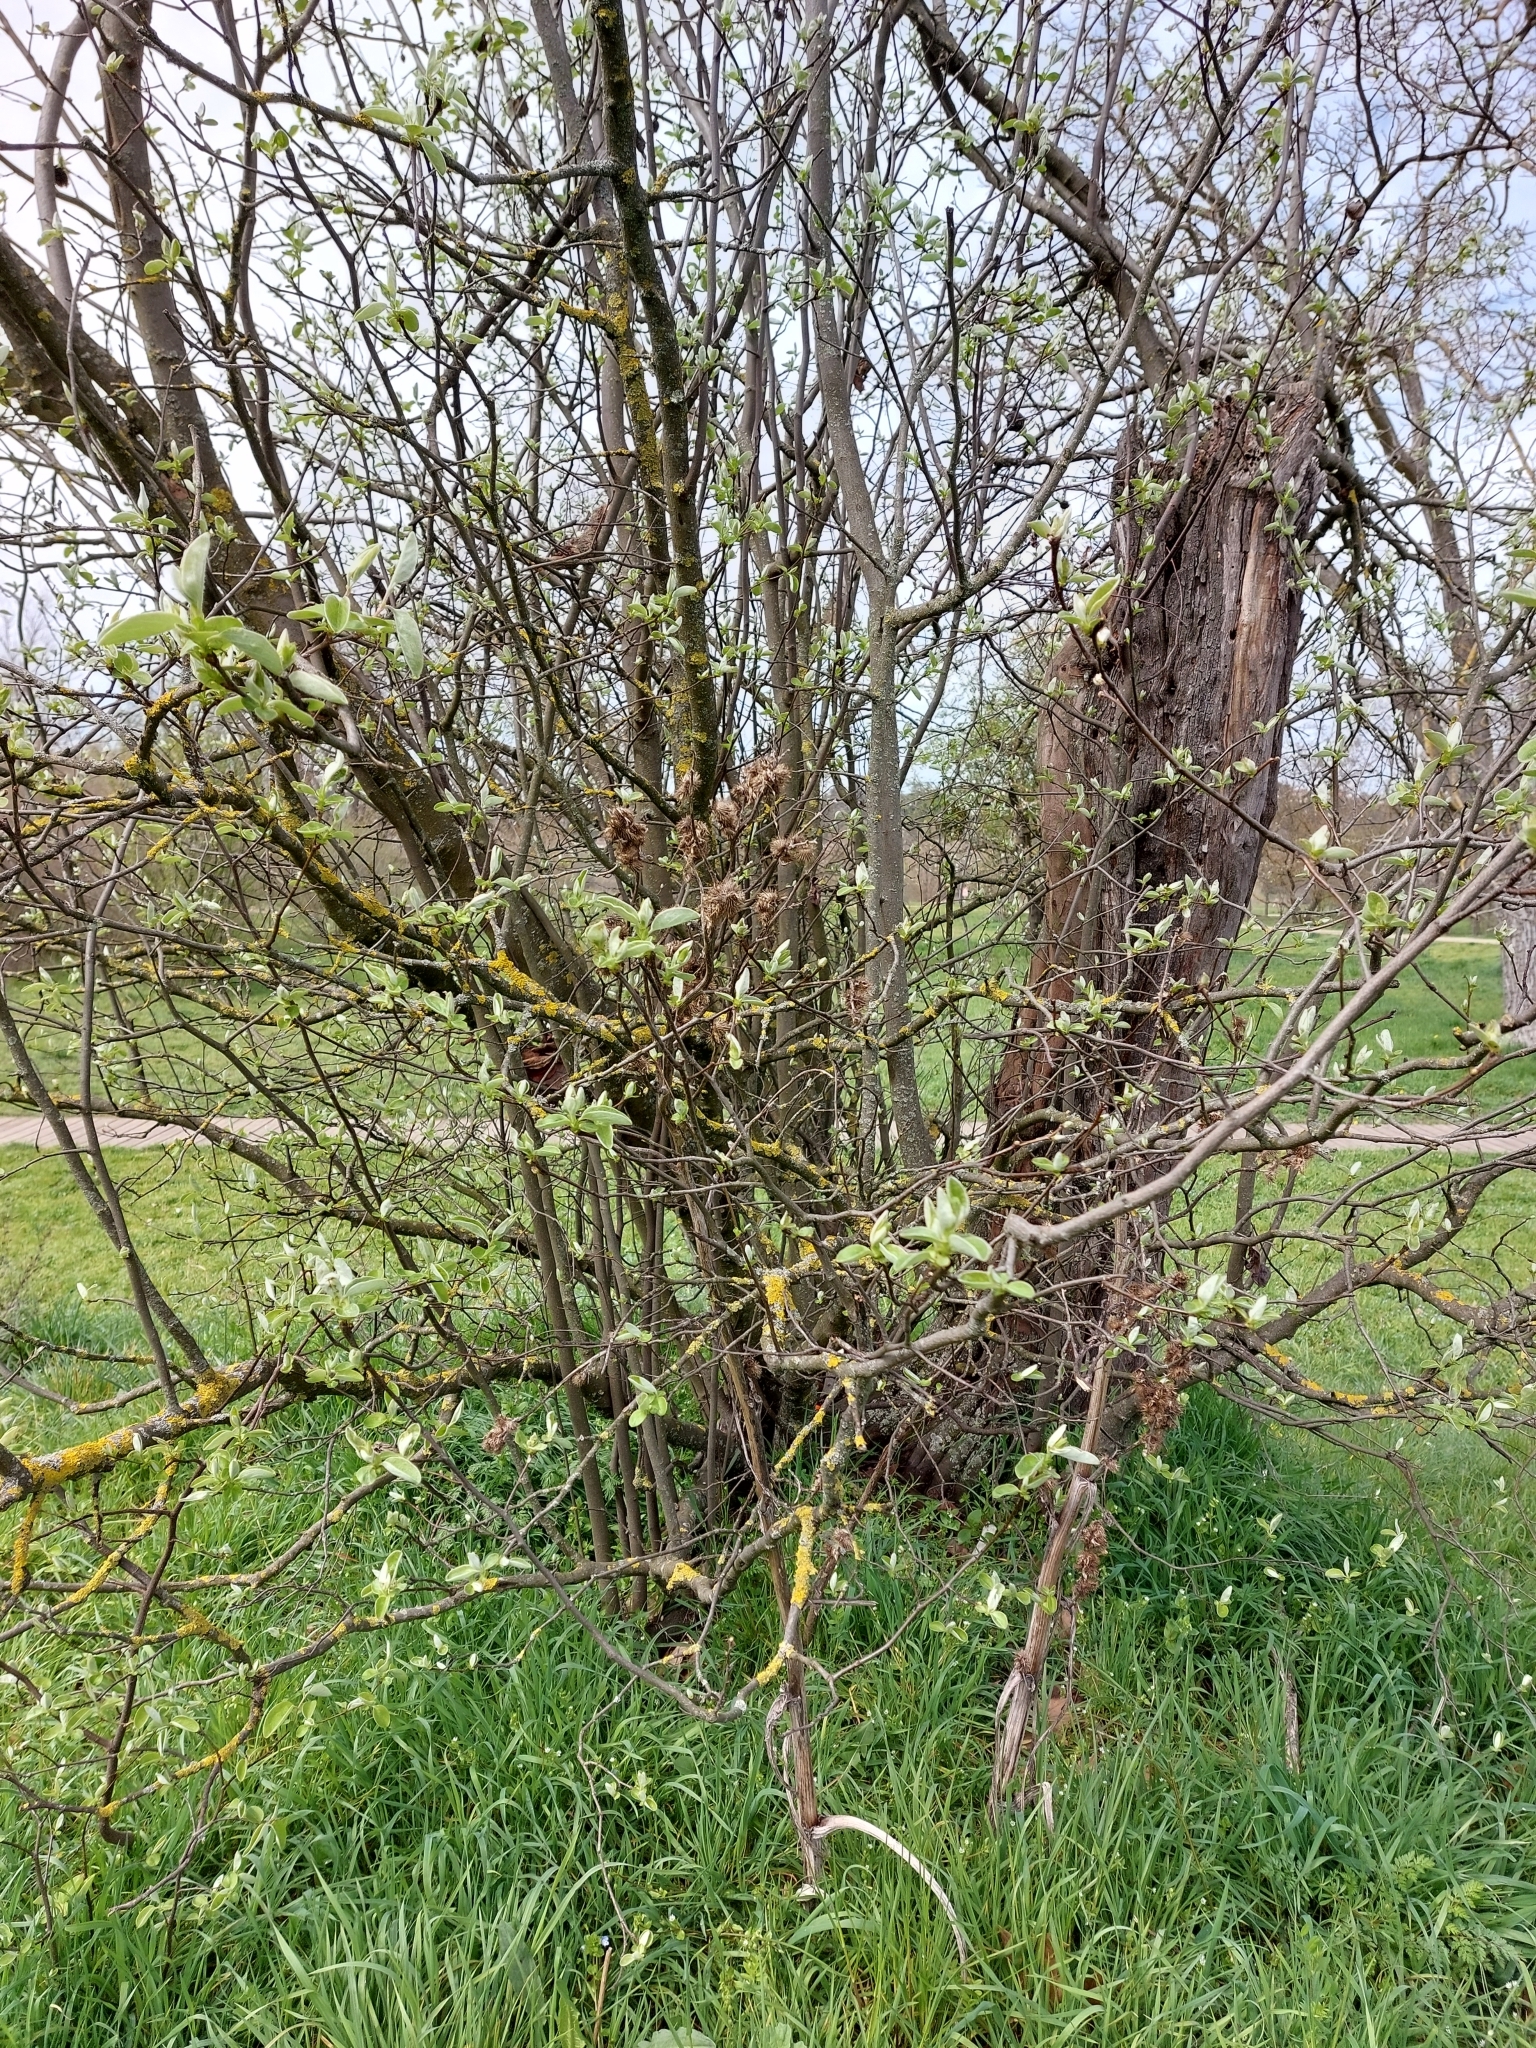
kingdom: Plantae
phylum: Tracheophyta
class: Magnoliopsida
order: Rosales
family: Rosaceae
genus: Cydonia
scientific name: Cydonia oblonga
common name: Quince
